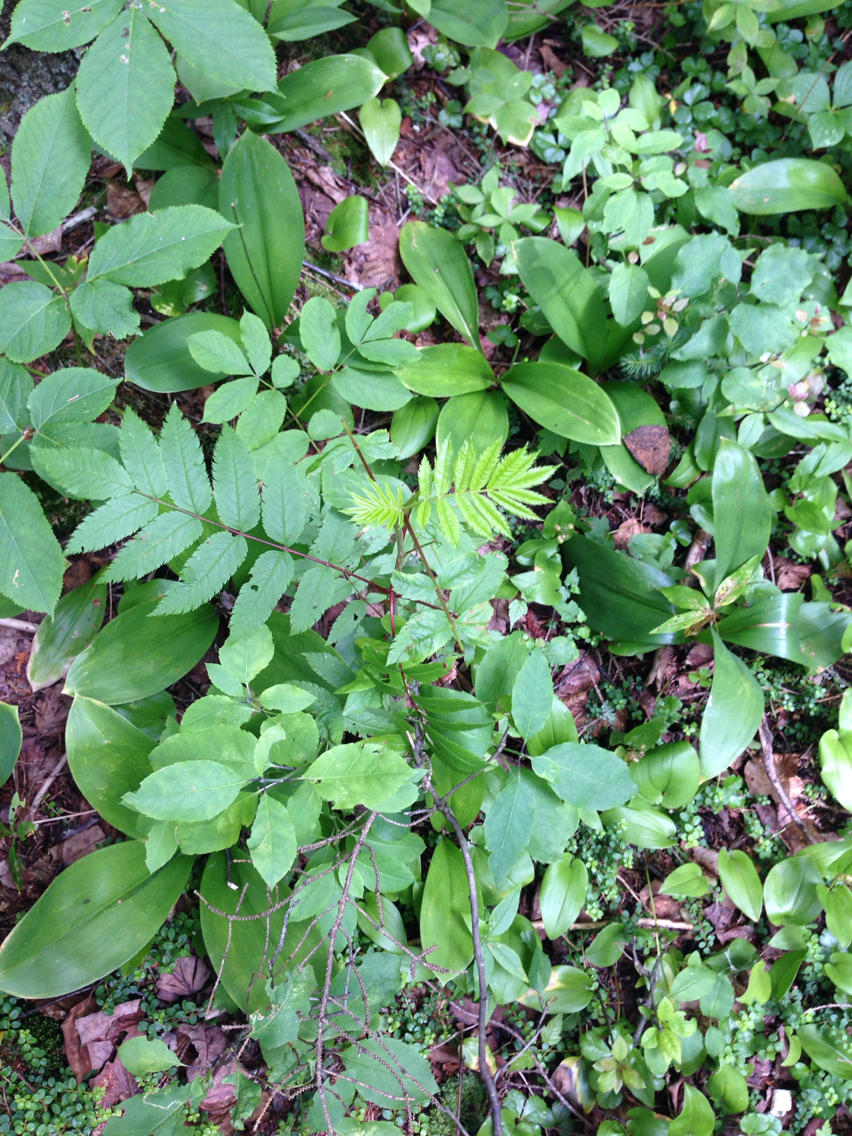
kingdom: Plantae
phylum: Tracheophyta
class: Magnoliopsida
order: Rosales
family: Rosaceae
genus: Sorbus
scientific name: Sorbus americana
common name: American mountain-ash
